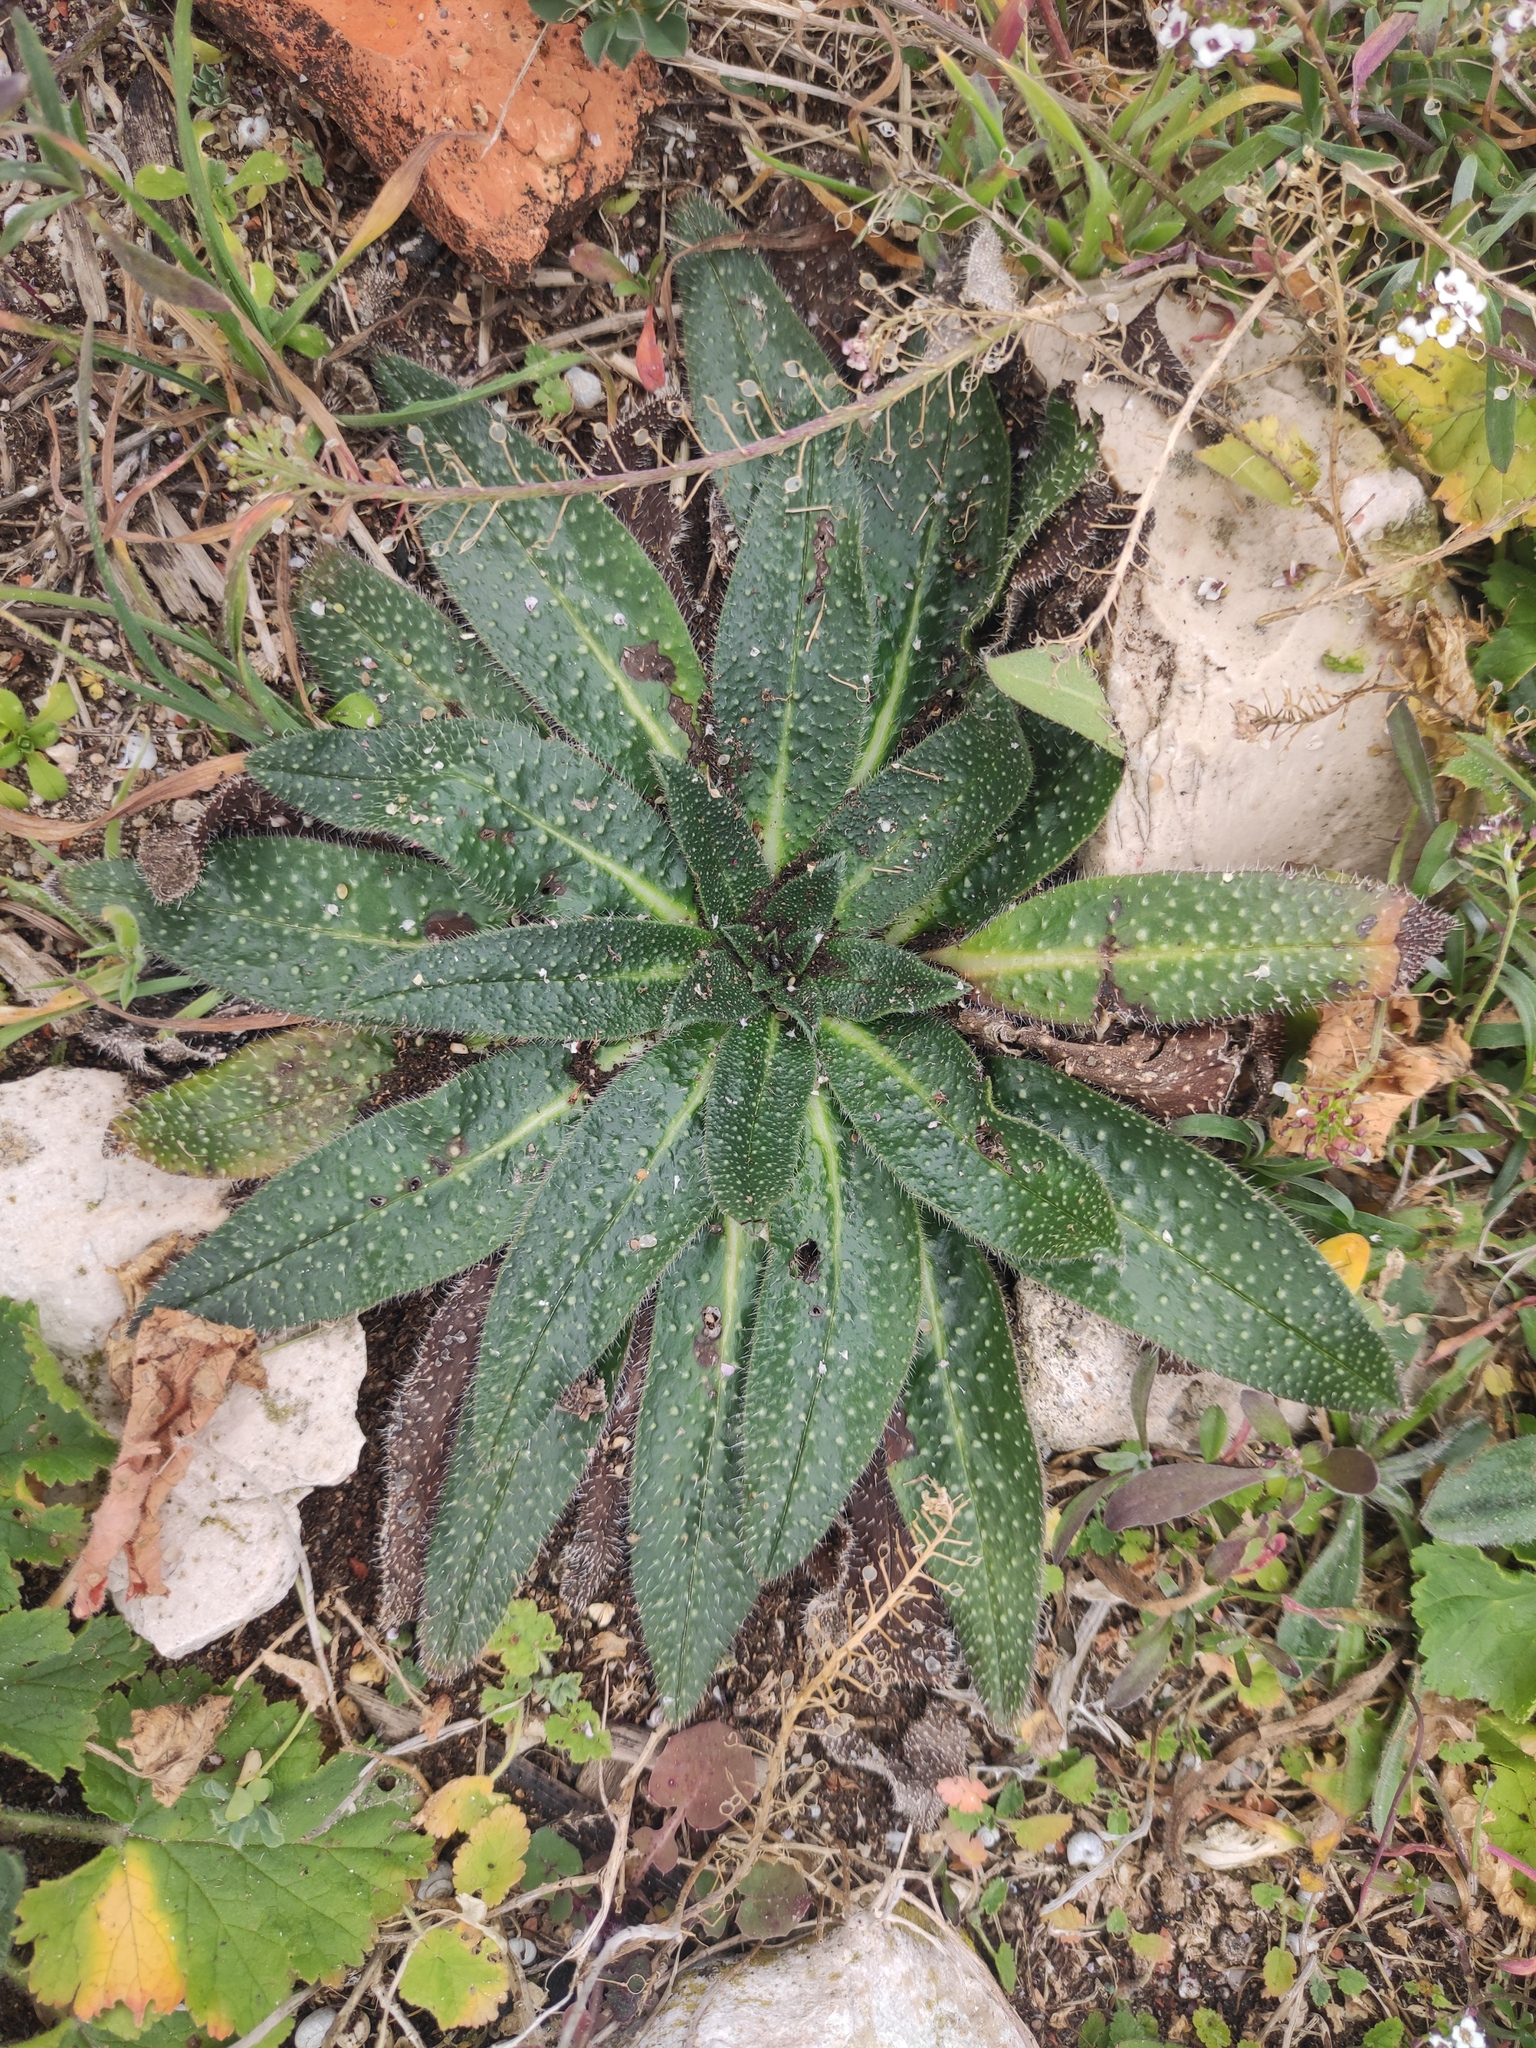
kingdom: Plantae
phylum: Tracheophyta
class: Magnoliopsida
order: Boraginales
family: Boraginaceae
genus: Echium
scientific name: Echium asperrimum
